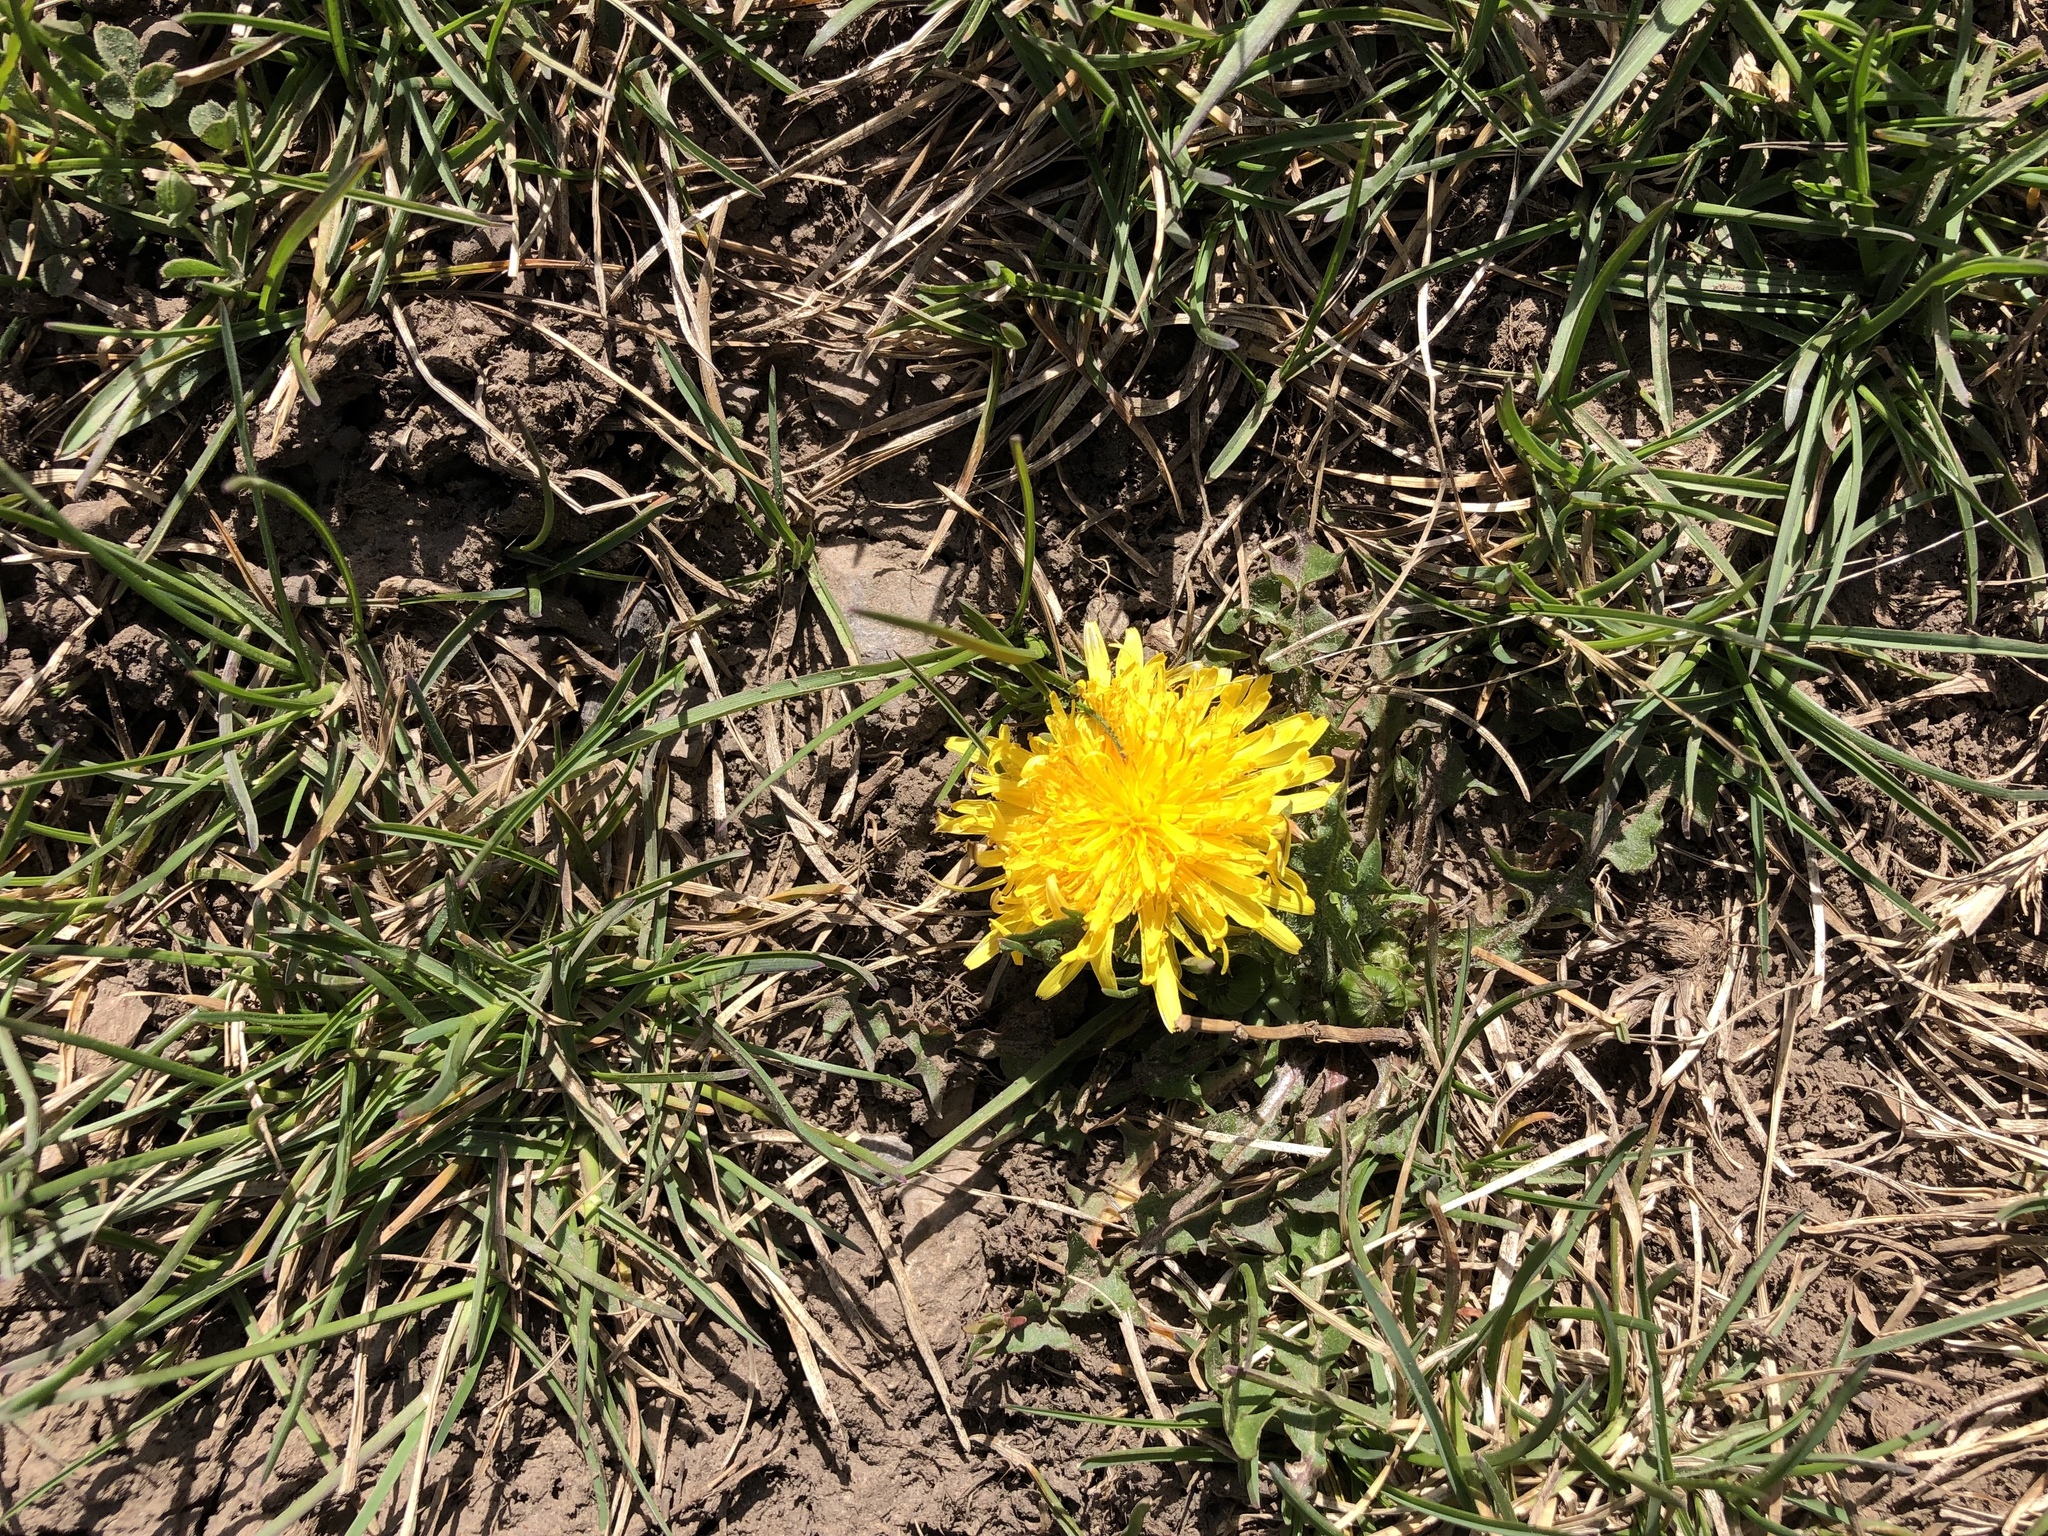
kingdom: Plantae
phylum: Tracheophyta
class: Magnoliopsida
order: Asterales
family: Asteraceae
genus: Taraxacum
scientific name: Taraxacum officinale
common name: Common dandelion
